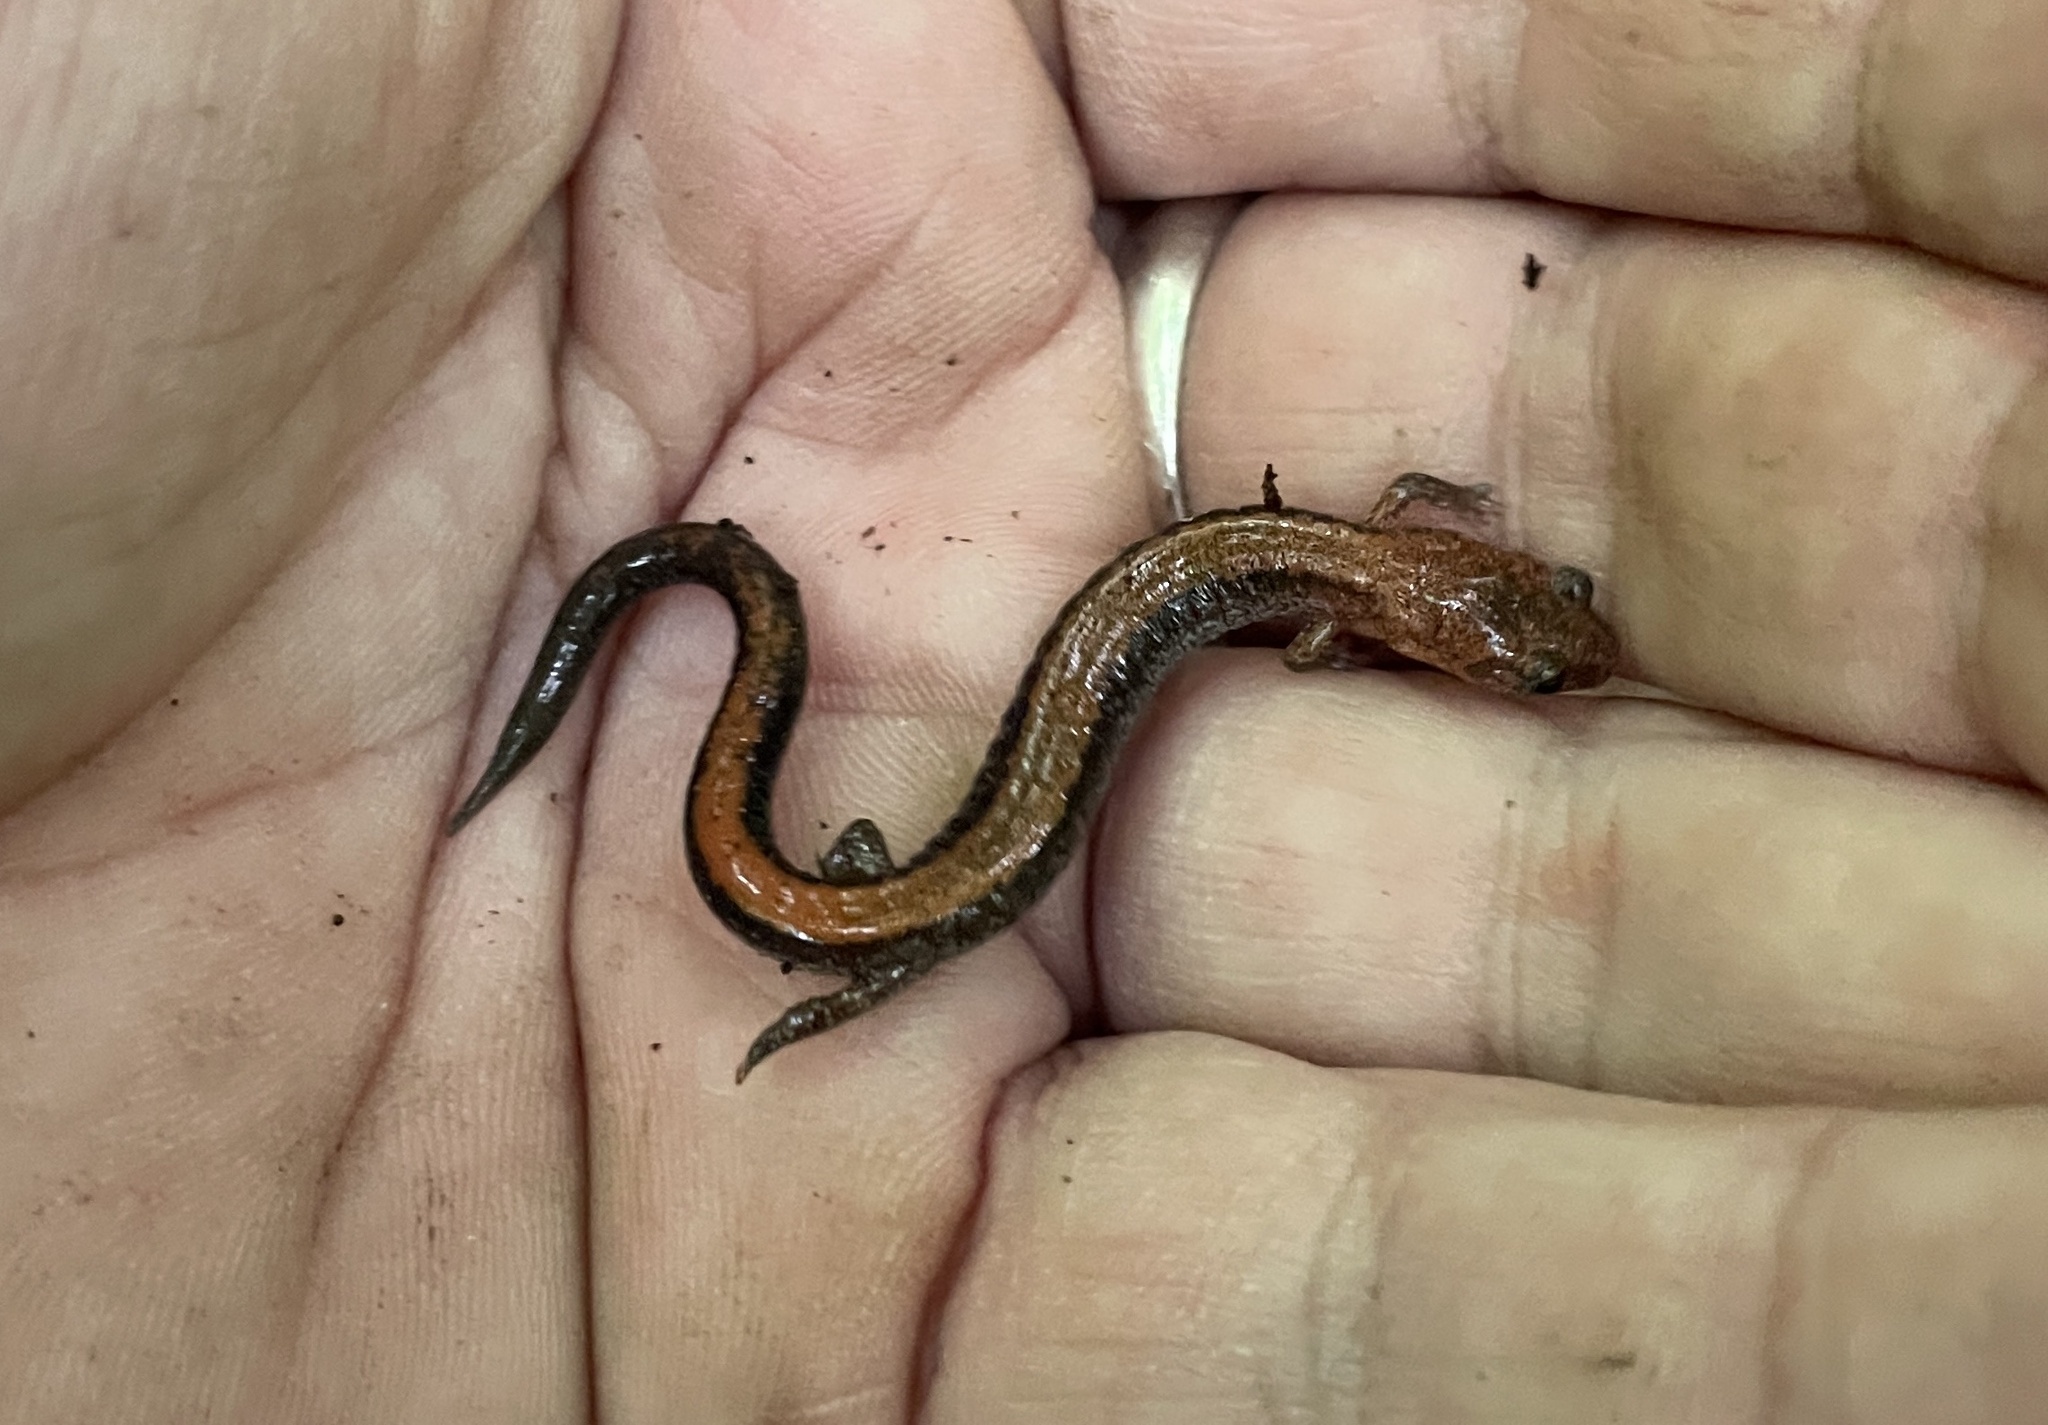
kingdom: Animalia
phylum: Chordata
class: Amphibia
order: Caudata
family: Plethodontidae
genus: Plethodon
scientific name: Plethodon cinereus
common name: Redback salamander
